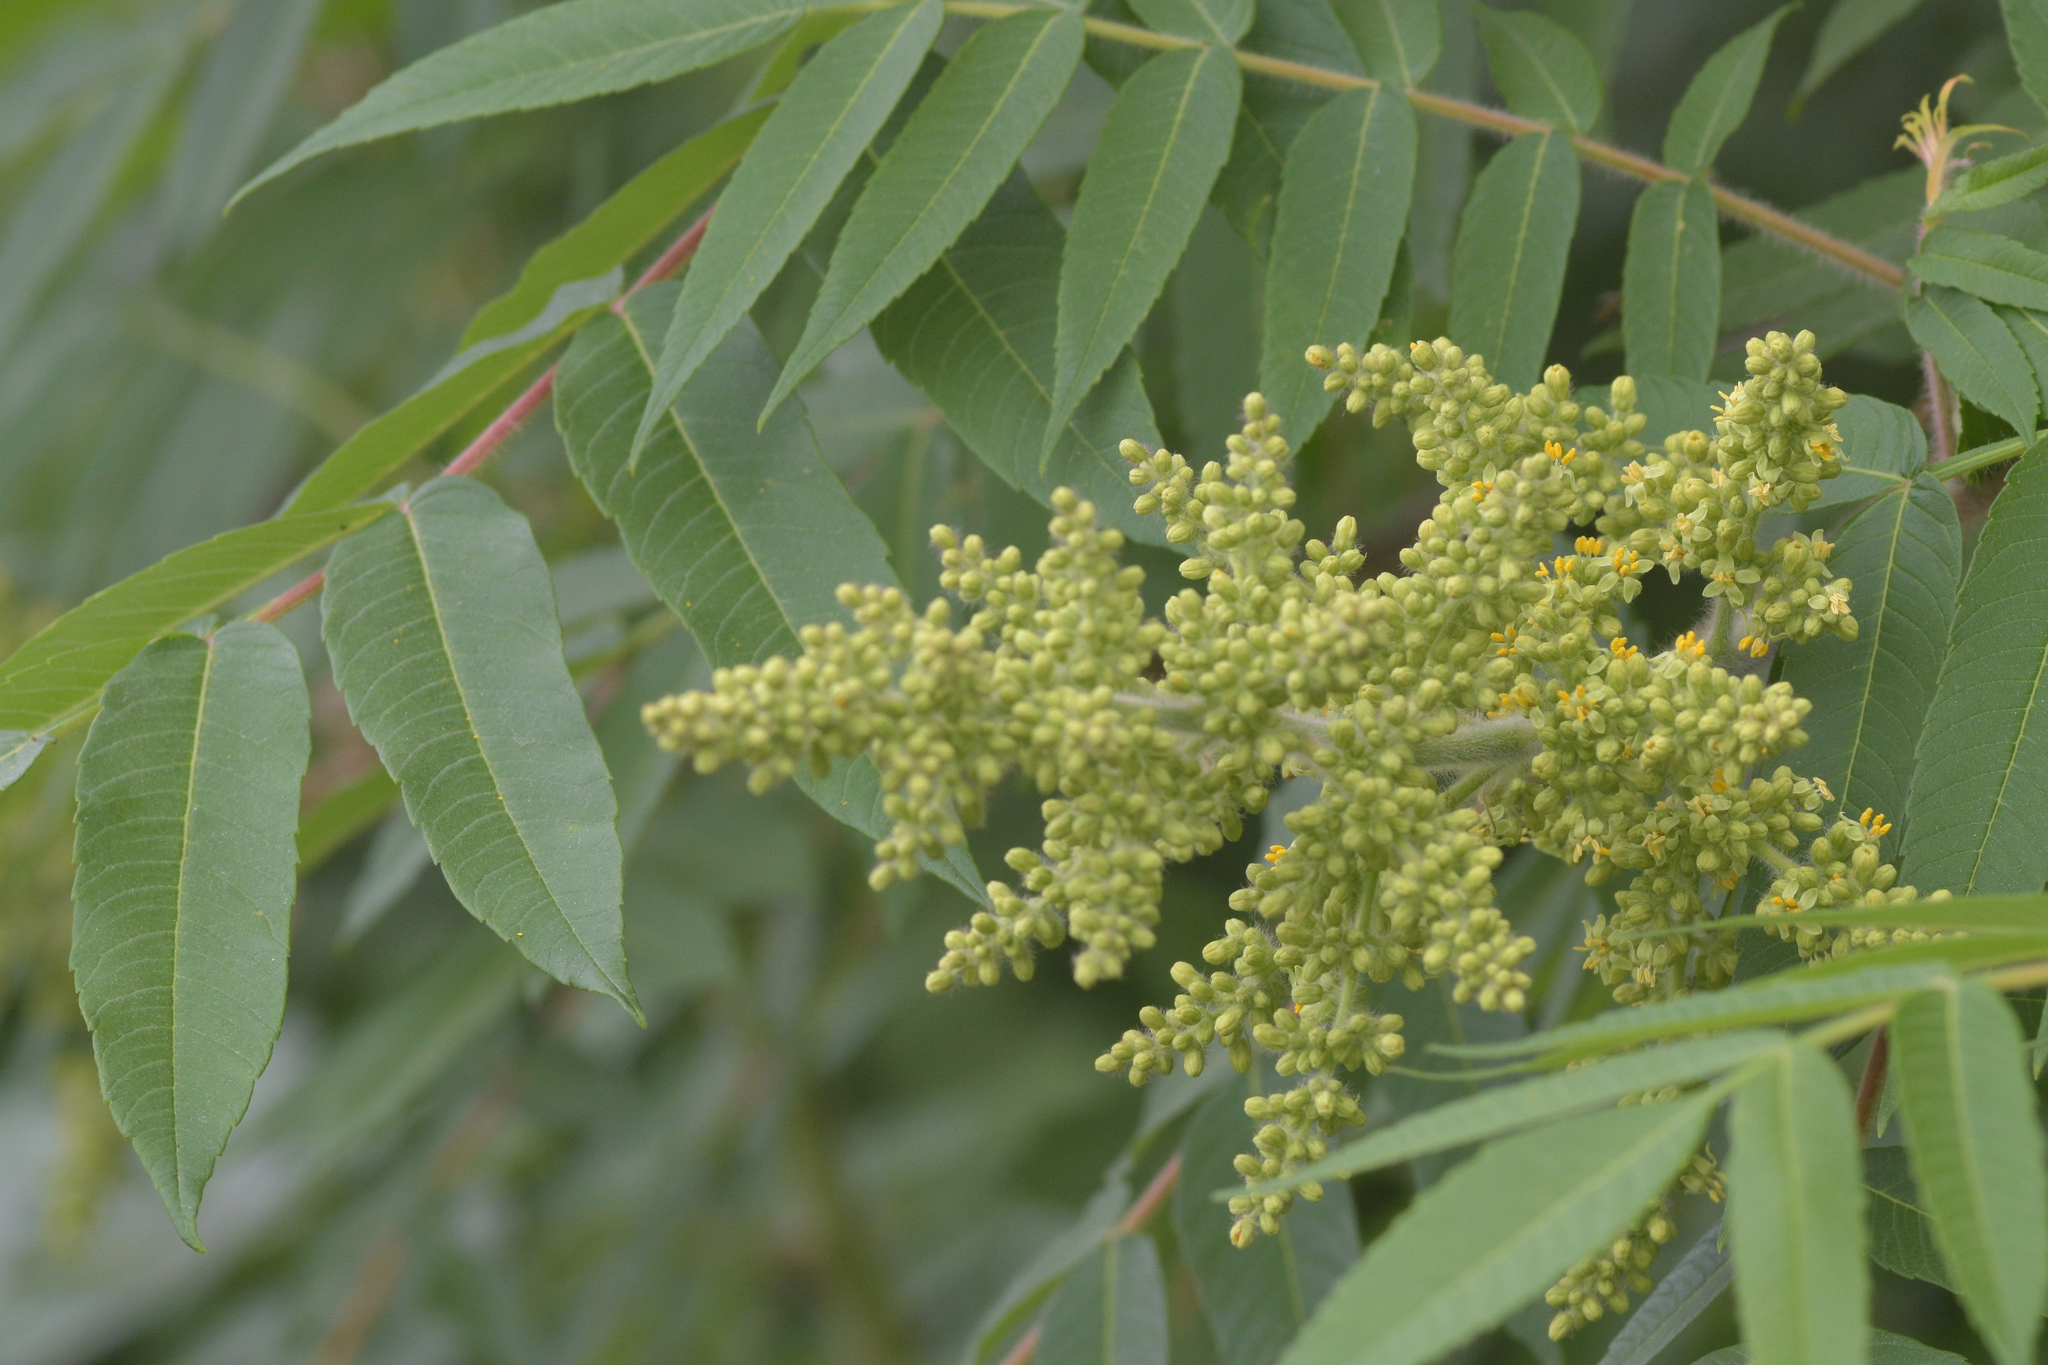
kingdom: Plantae
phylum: Tracheophyta
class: Magnoliopsida
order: Sapindales
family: Anacardiaceae
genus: Rhus
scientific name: Rhus typhina
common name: Staghorn sumac
